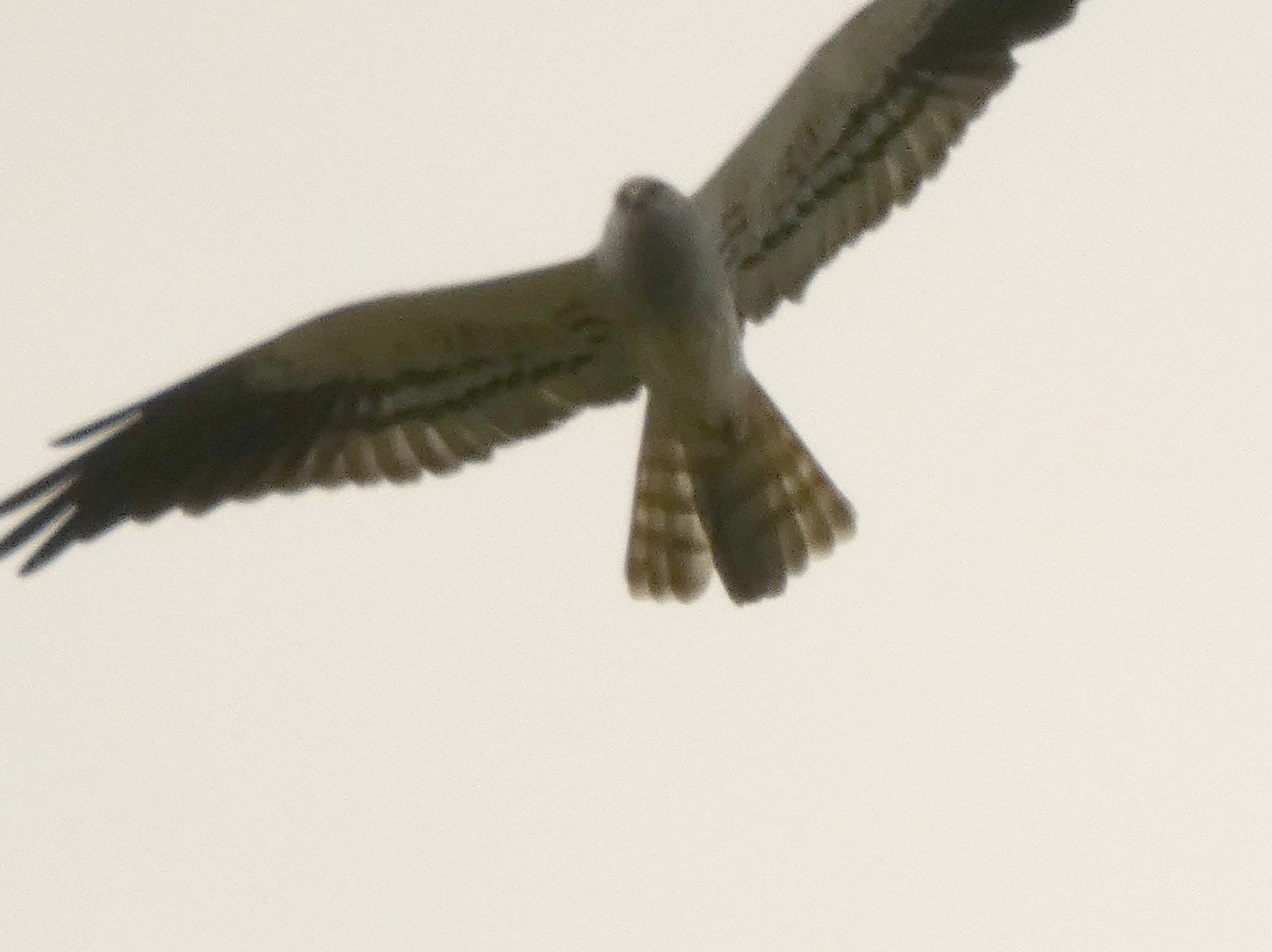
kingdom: Animalia
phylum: Chordata
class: Aves
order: Accipitriformes
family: Accipitridae
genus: Circus
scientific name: Circus pygargus
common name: Montagu's harrier
